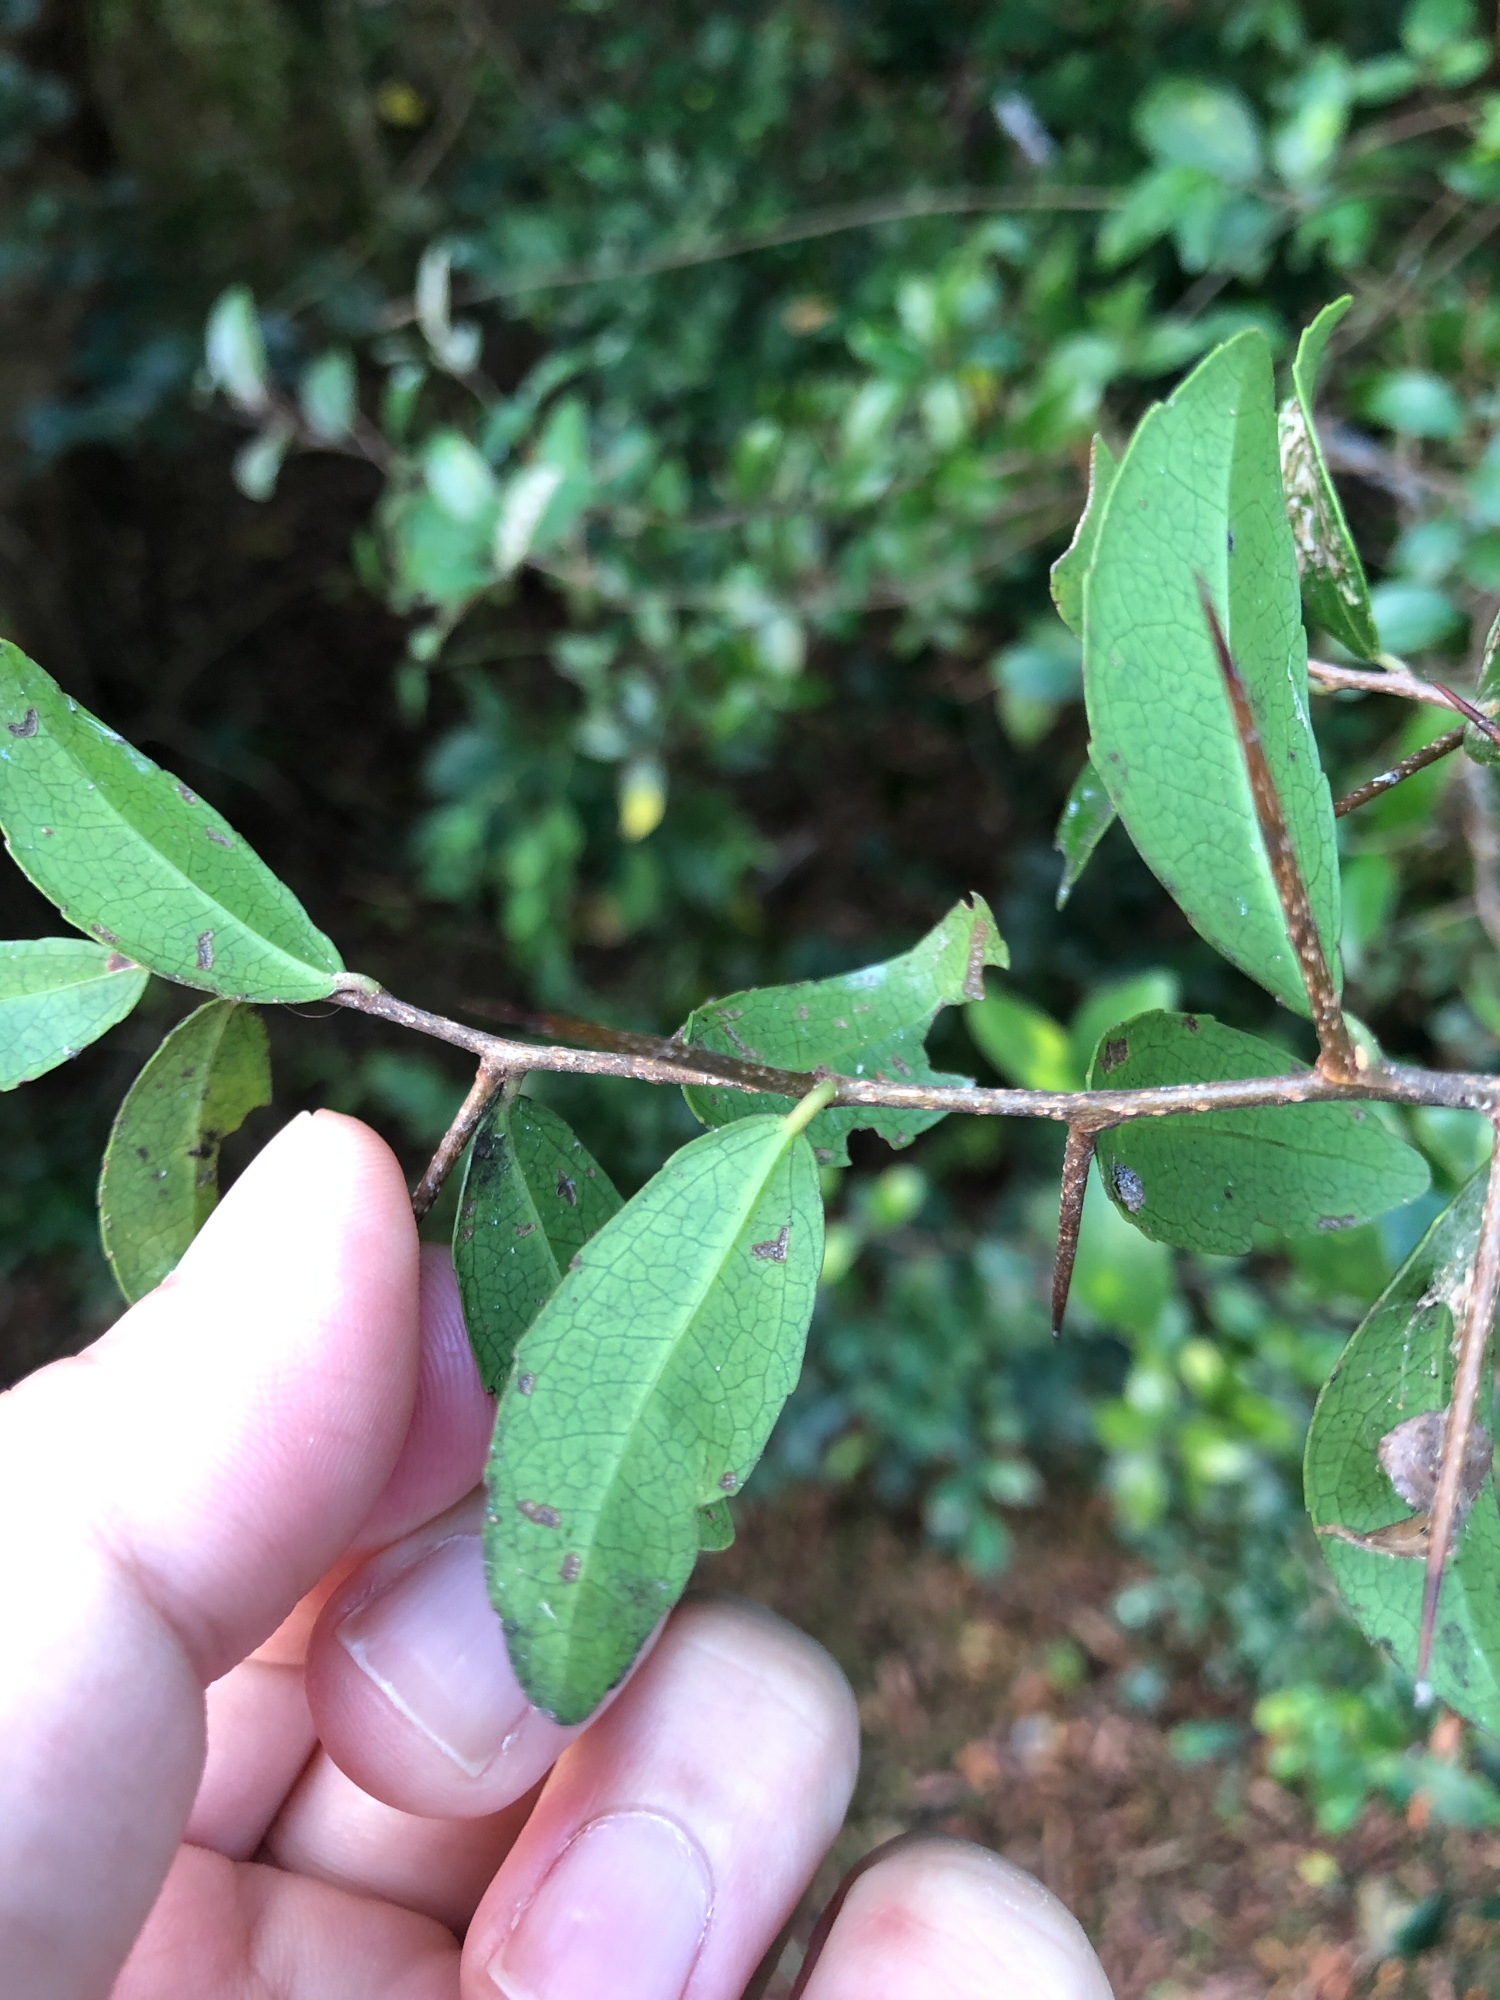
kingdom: Plantae
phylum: Tracheophyta
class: Magnoliopsida
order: Malpighiales
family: Salicaceae
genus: Scolopia
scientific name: Scolopia oldhamii
